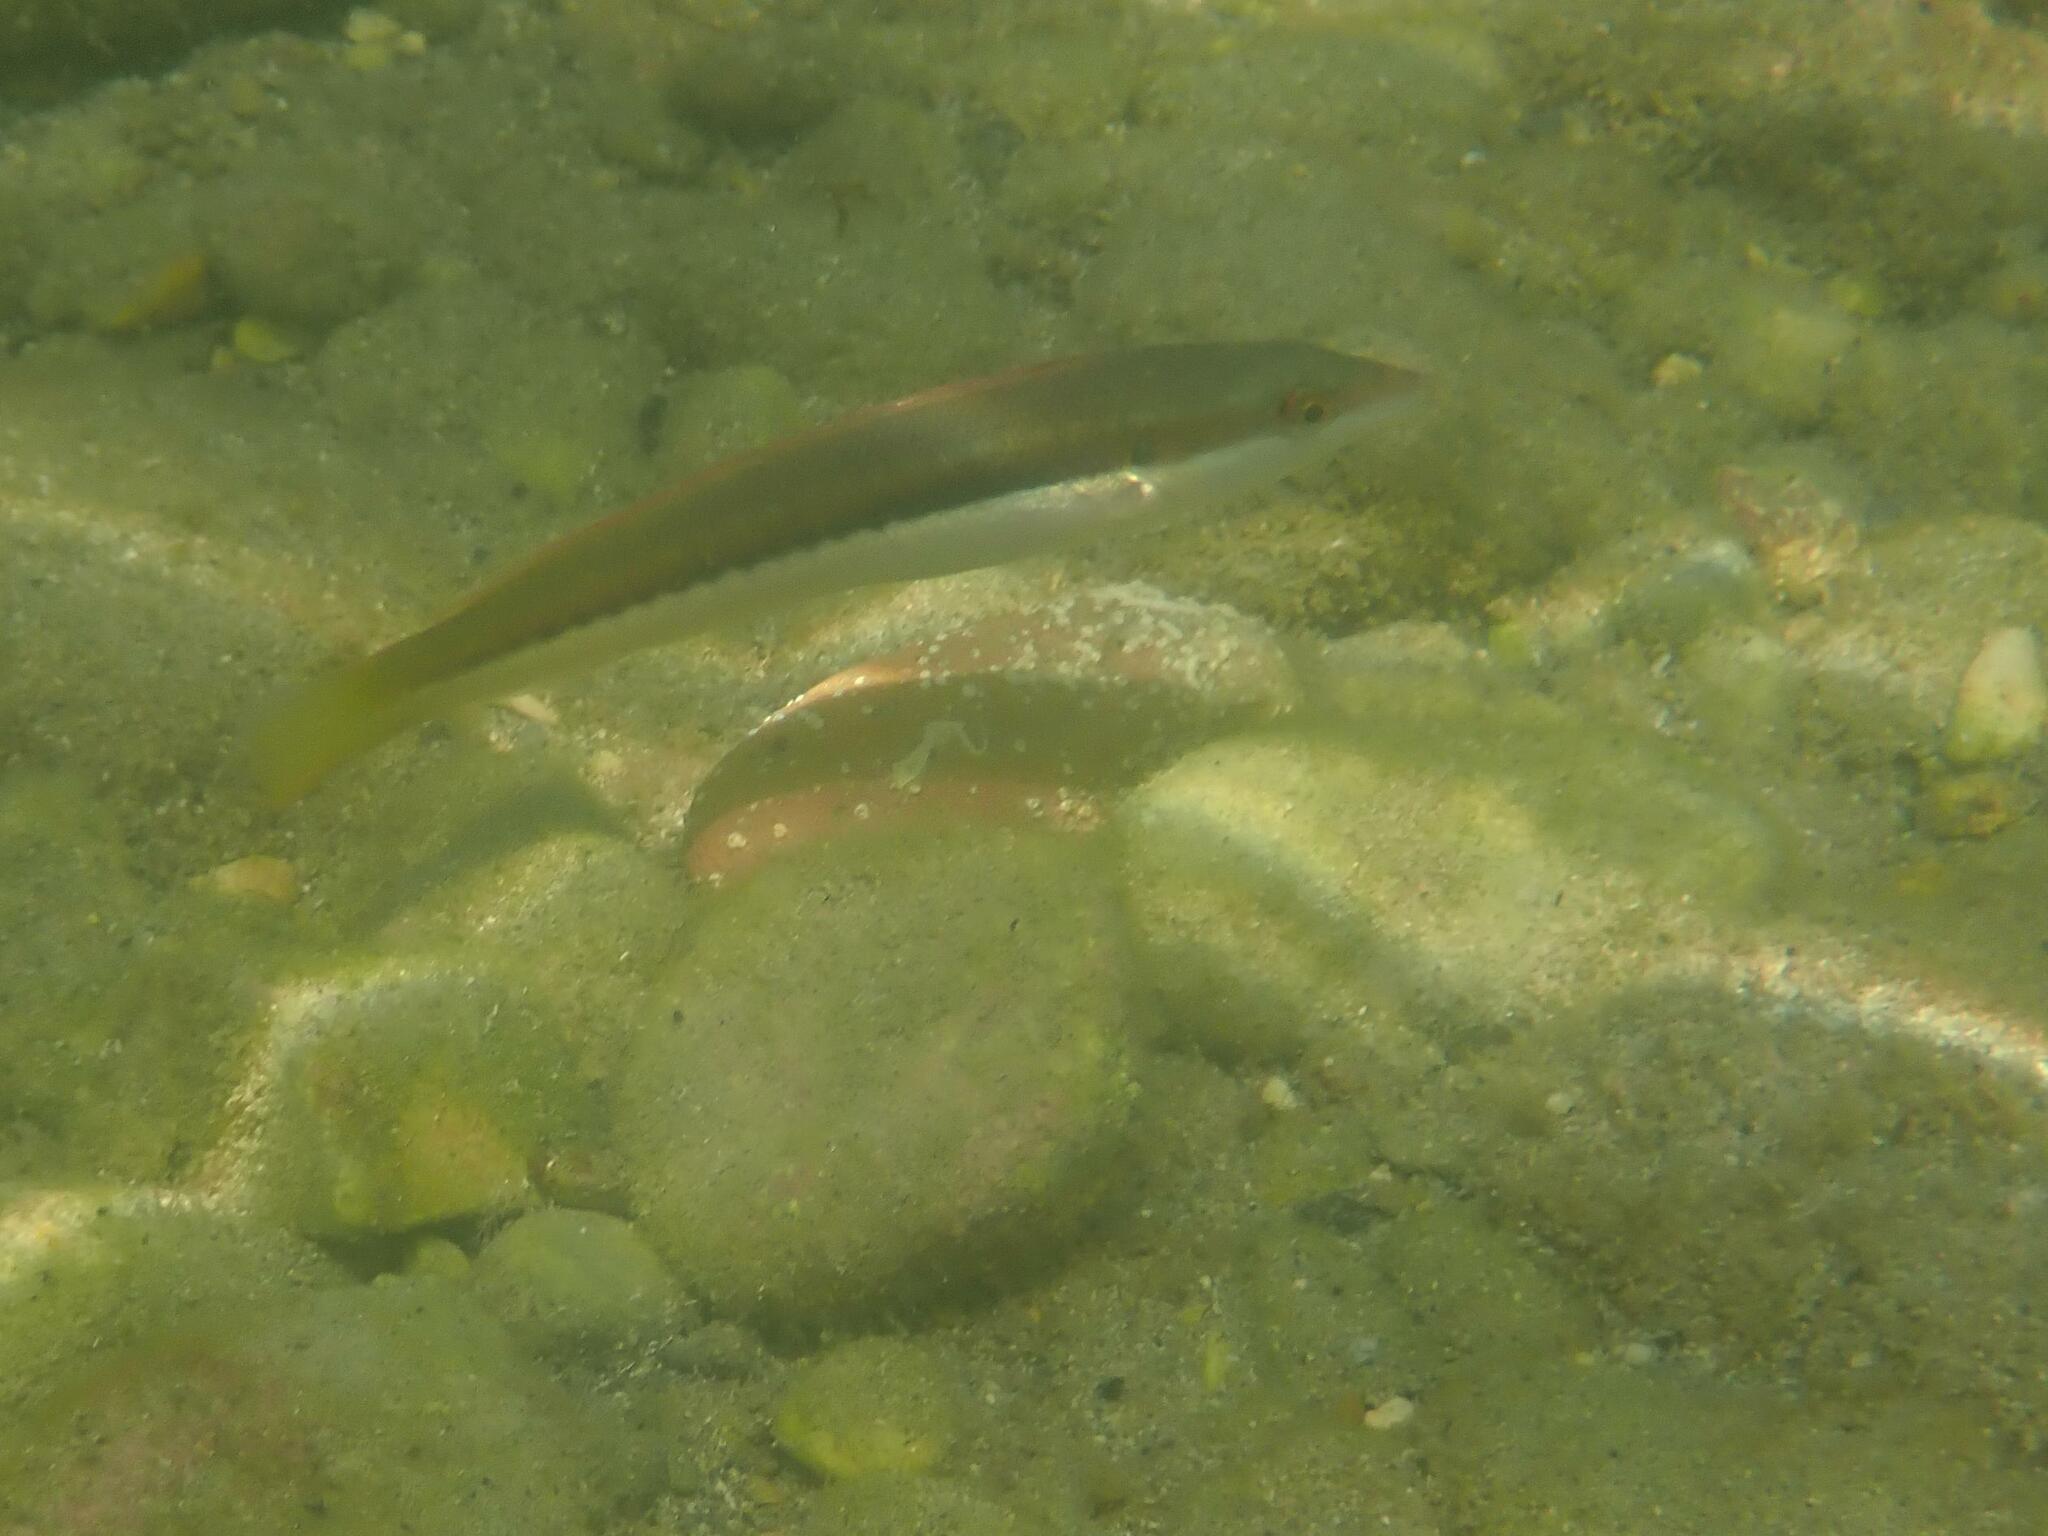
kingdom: Animalia
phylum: Chordata
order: Perciformes
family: Labridae
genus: Coris
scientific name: Coris julis
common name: Rainbow wrasse
